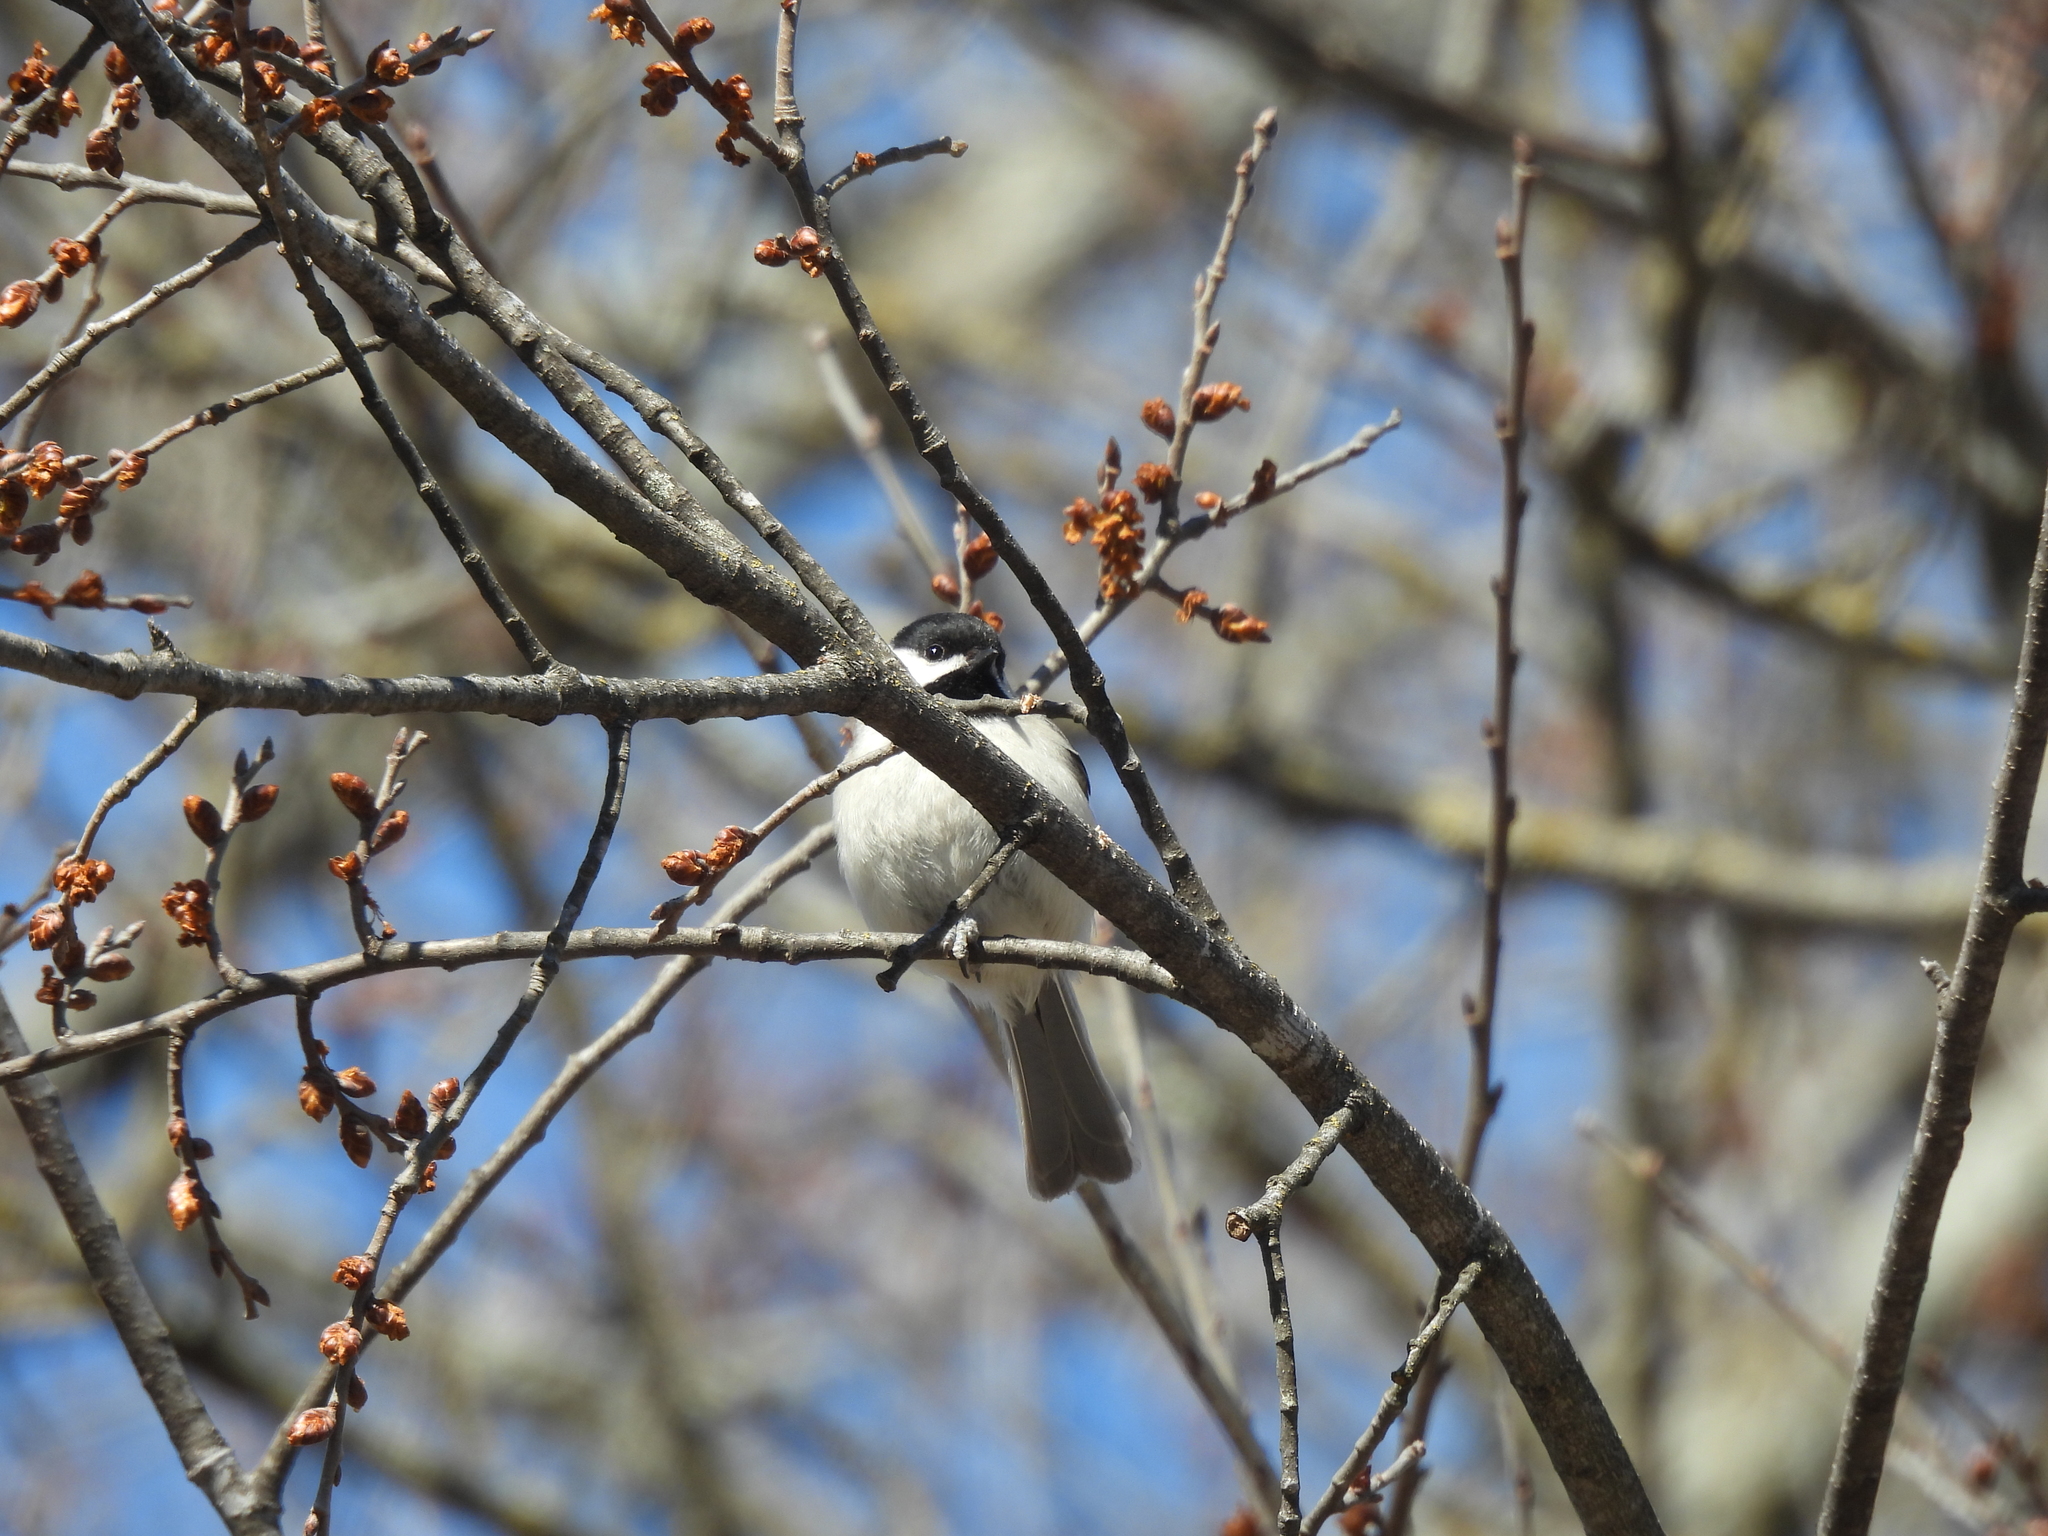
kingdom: Animalia
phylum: Chordata
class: Aves
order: Passeriformes
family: Paridae
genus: Poecile
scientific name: Poecile carolinensis
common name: Carolina chickadee
